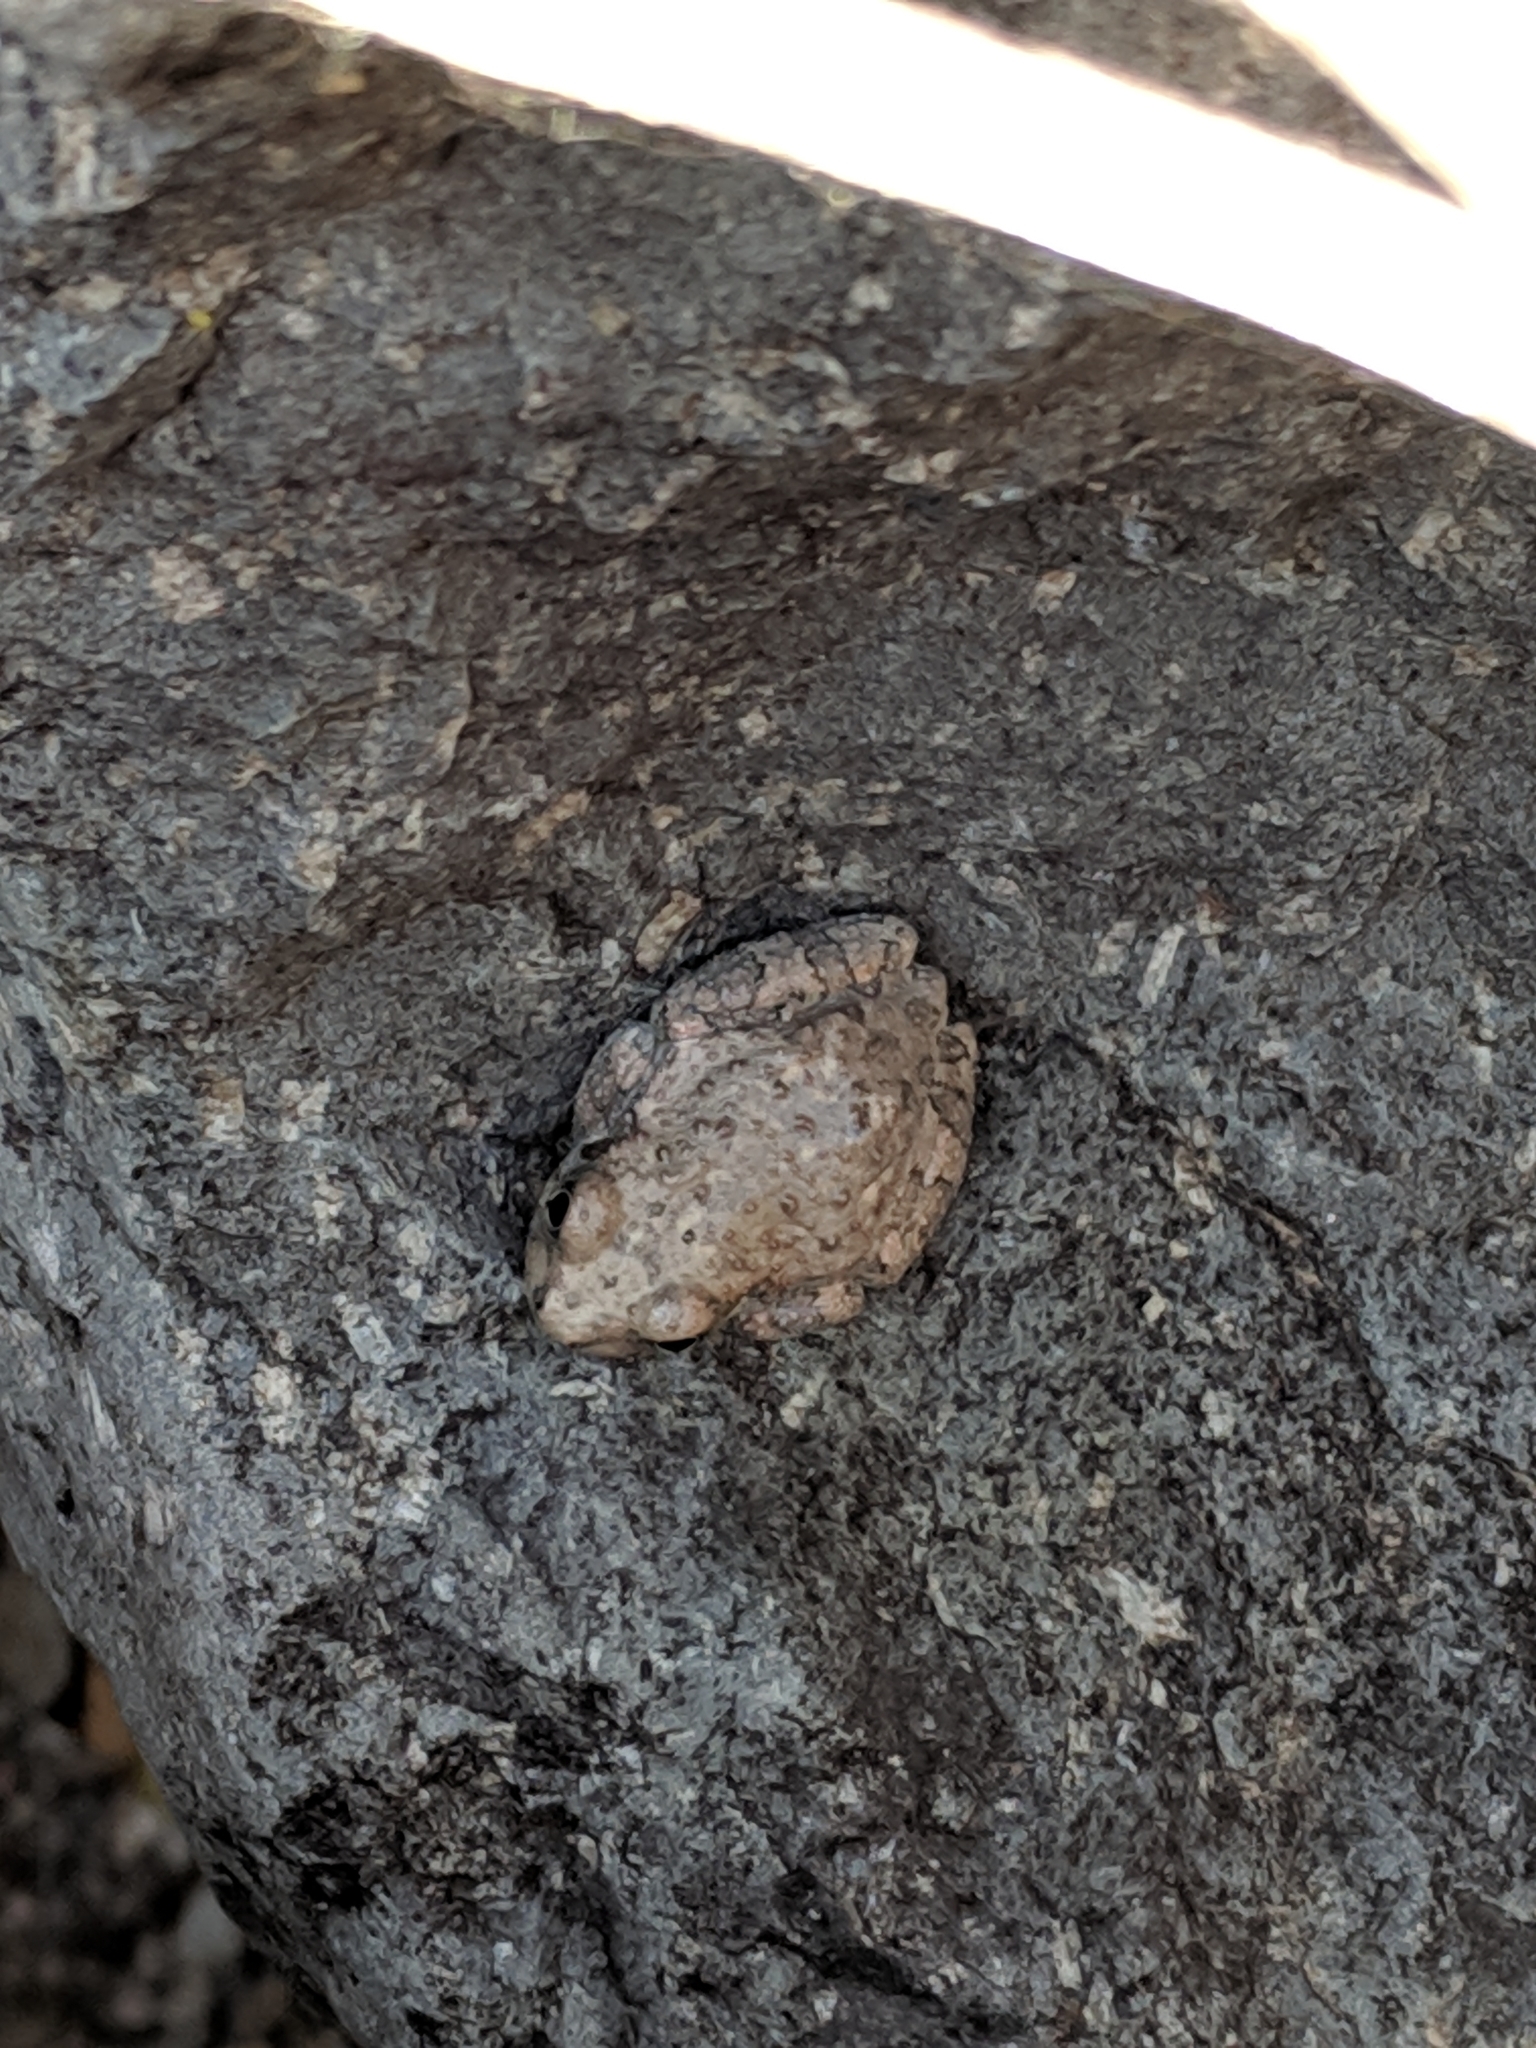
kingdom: Animalia
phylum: Chordata
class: Amphibia
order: Anura
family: Hylidae
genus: Dryophytes
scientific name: Dryophytes arenicolor
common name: Canyon treefrog
